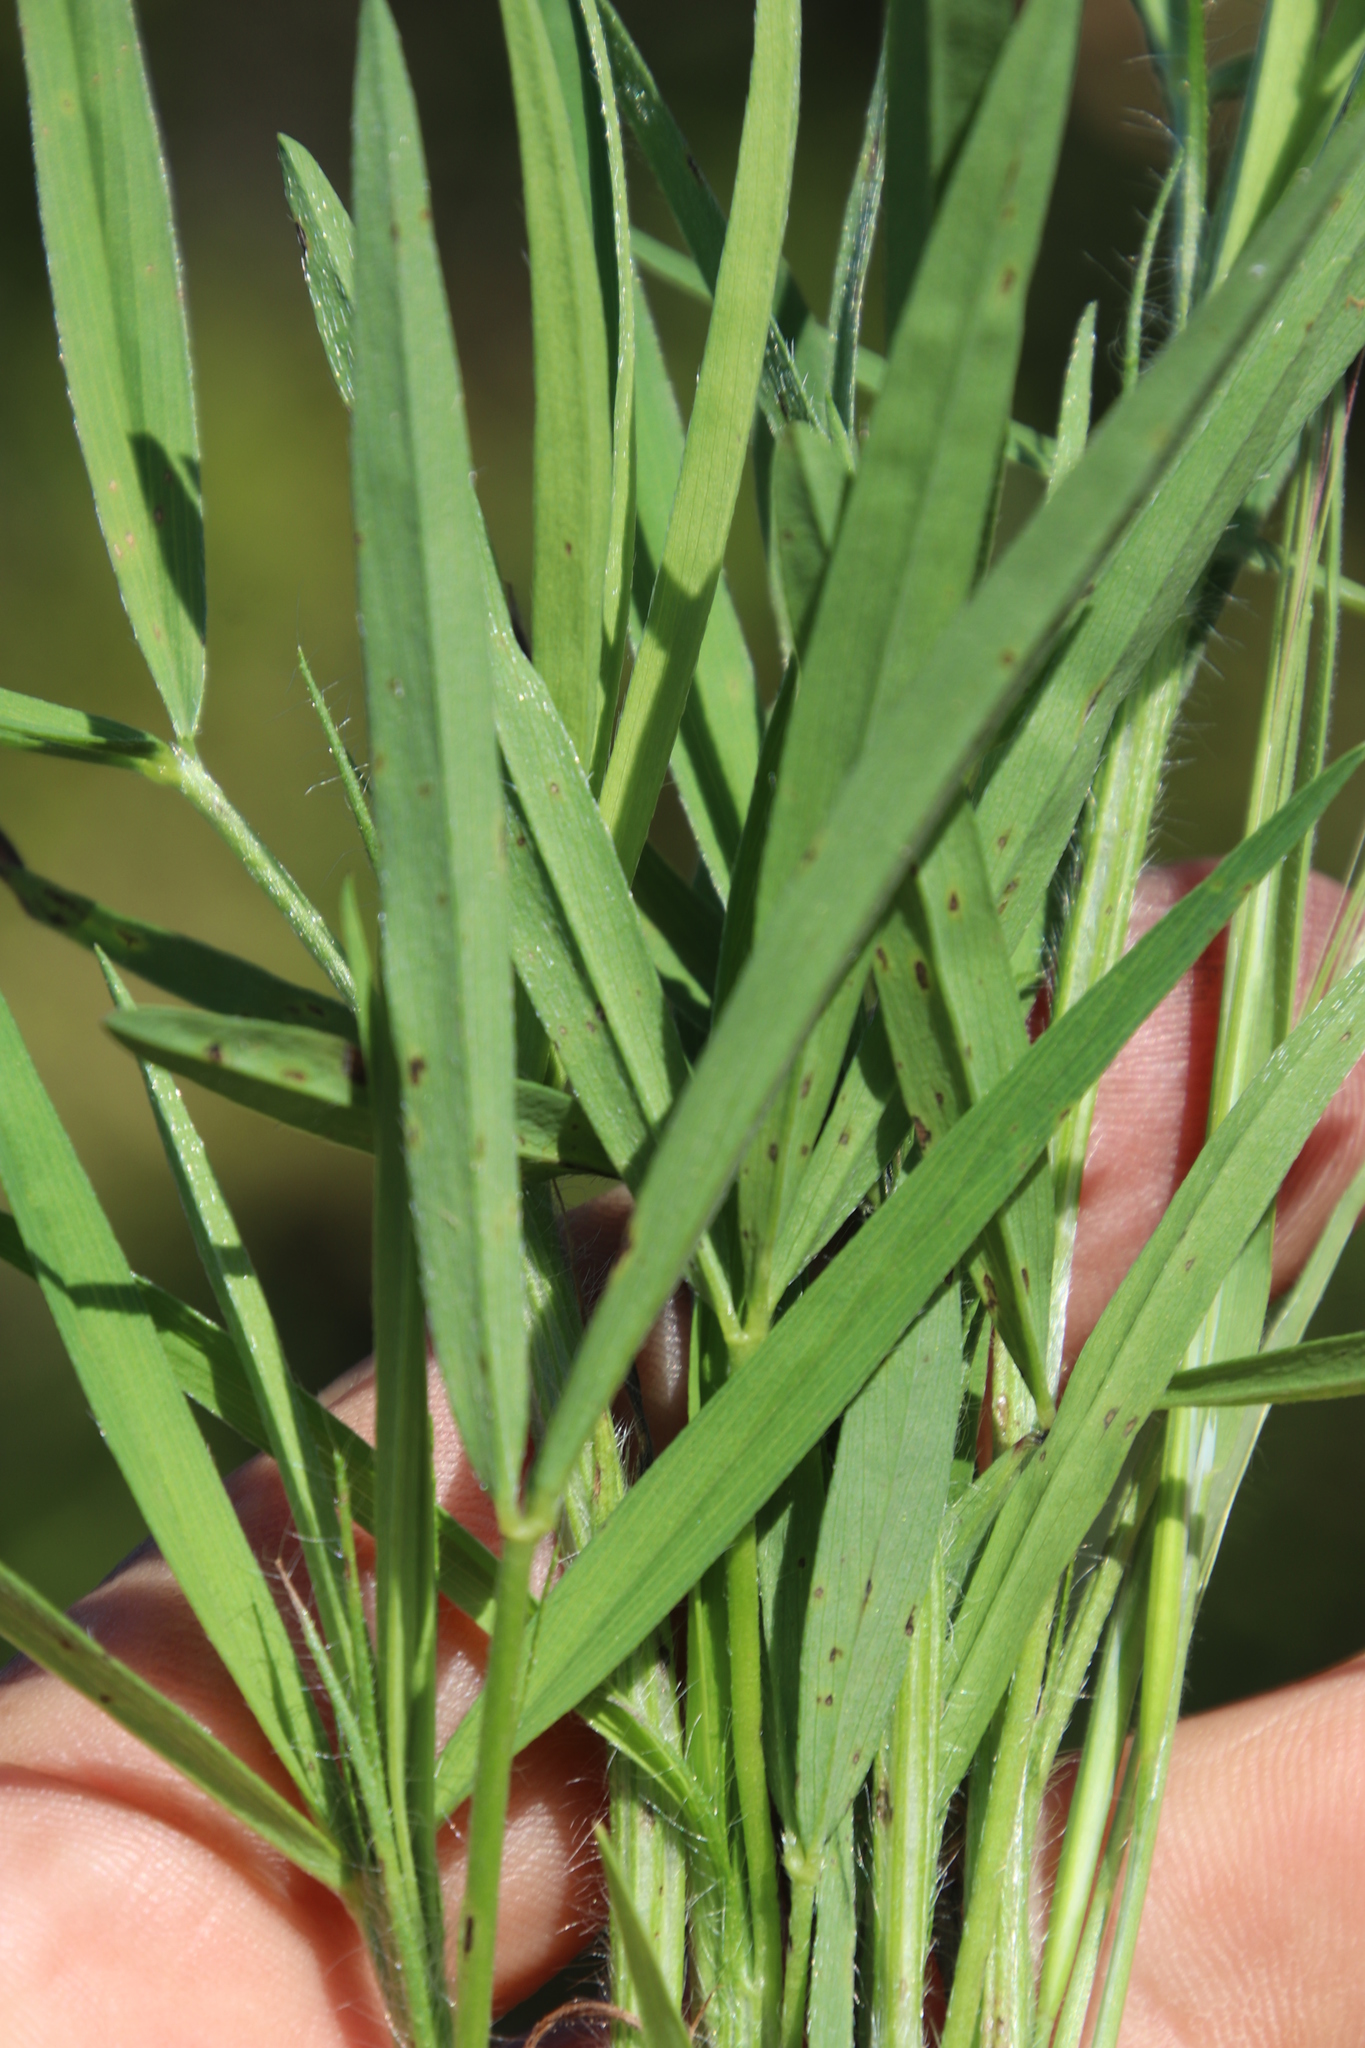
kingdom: Plantae
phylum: Tracheophyta
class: Magnoliopsida
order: Fabales
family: Fabaceae
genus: Trifolium
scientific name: Trifolium angustifolium
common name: Narrow clover
